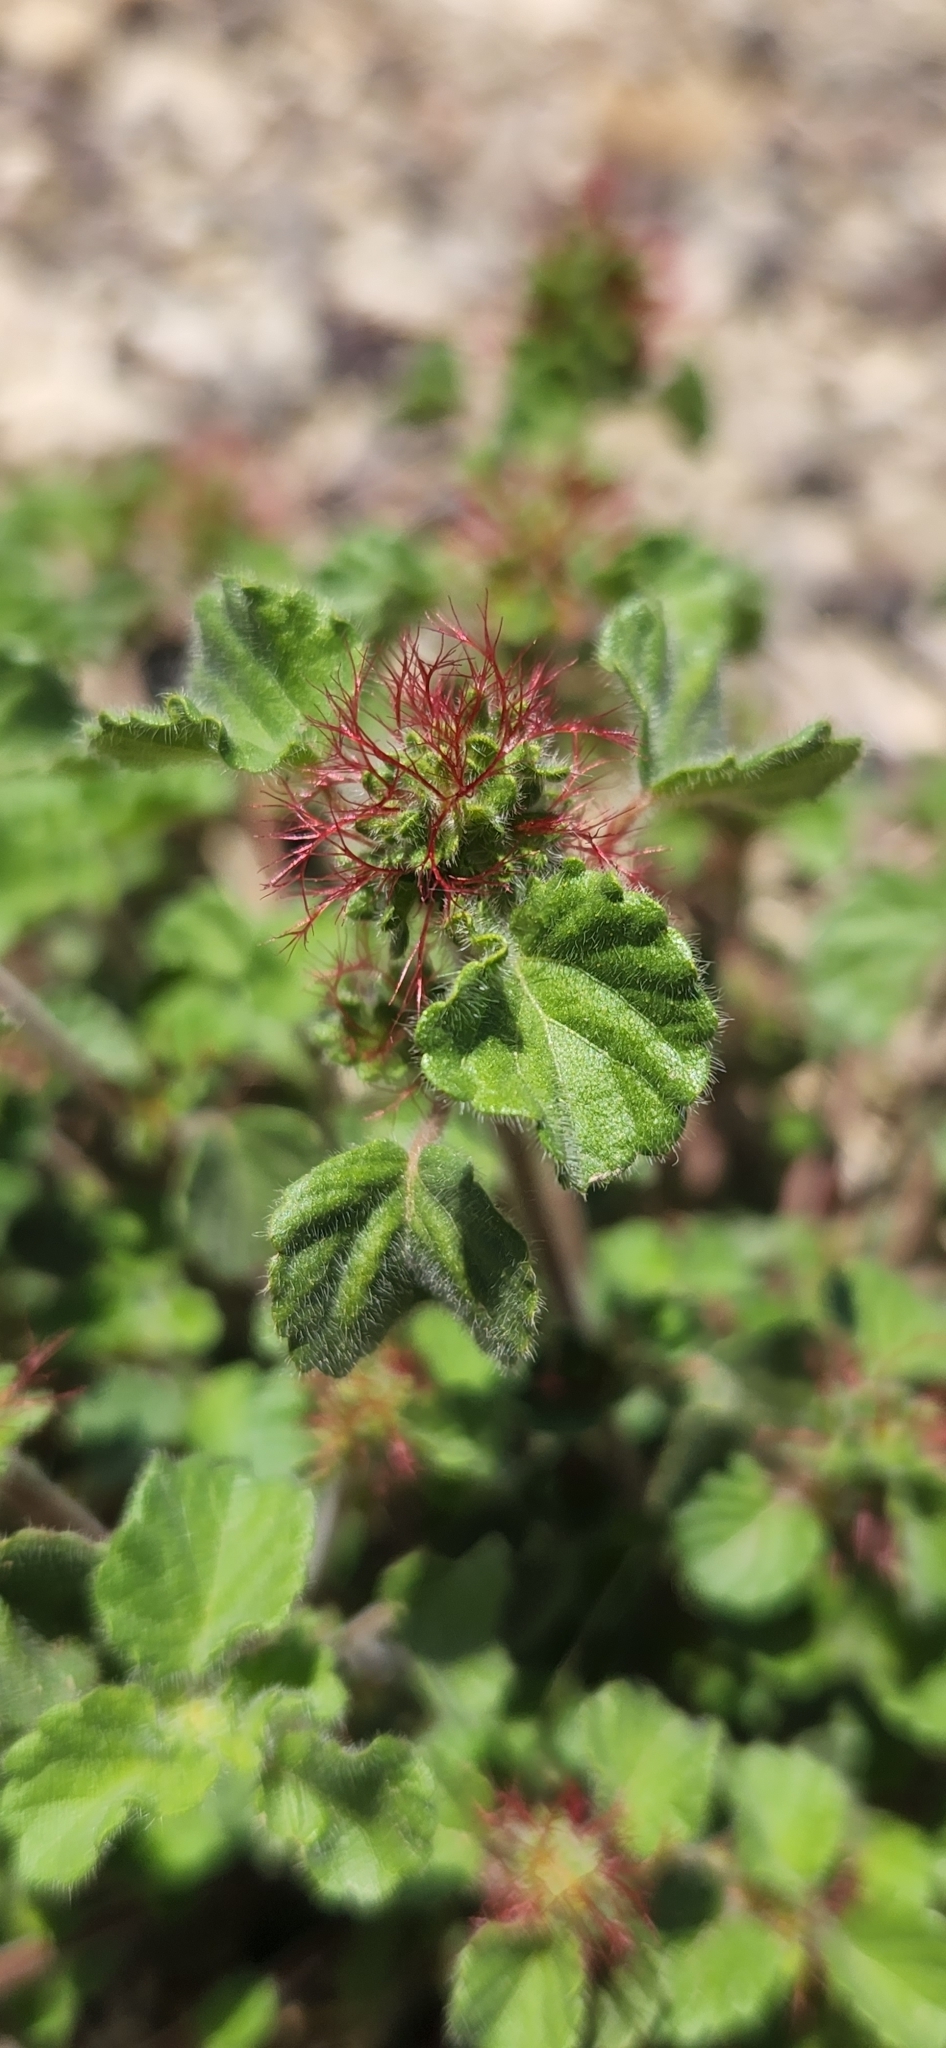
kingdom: Plantae
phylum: Tracheophyta
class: Magnoliopsida
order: Malpighiales
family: Euphorbiaceae
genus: Acalypha
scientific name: Acalypha monostachya
